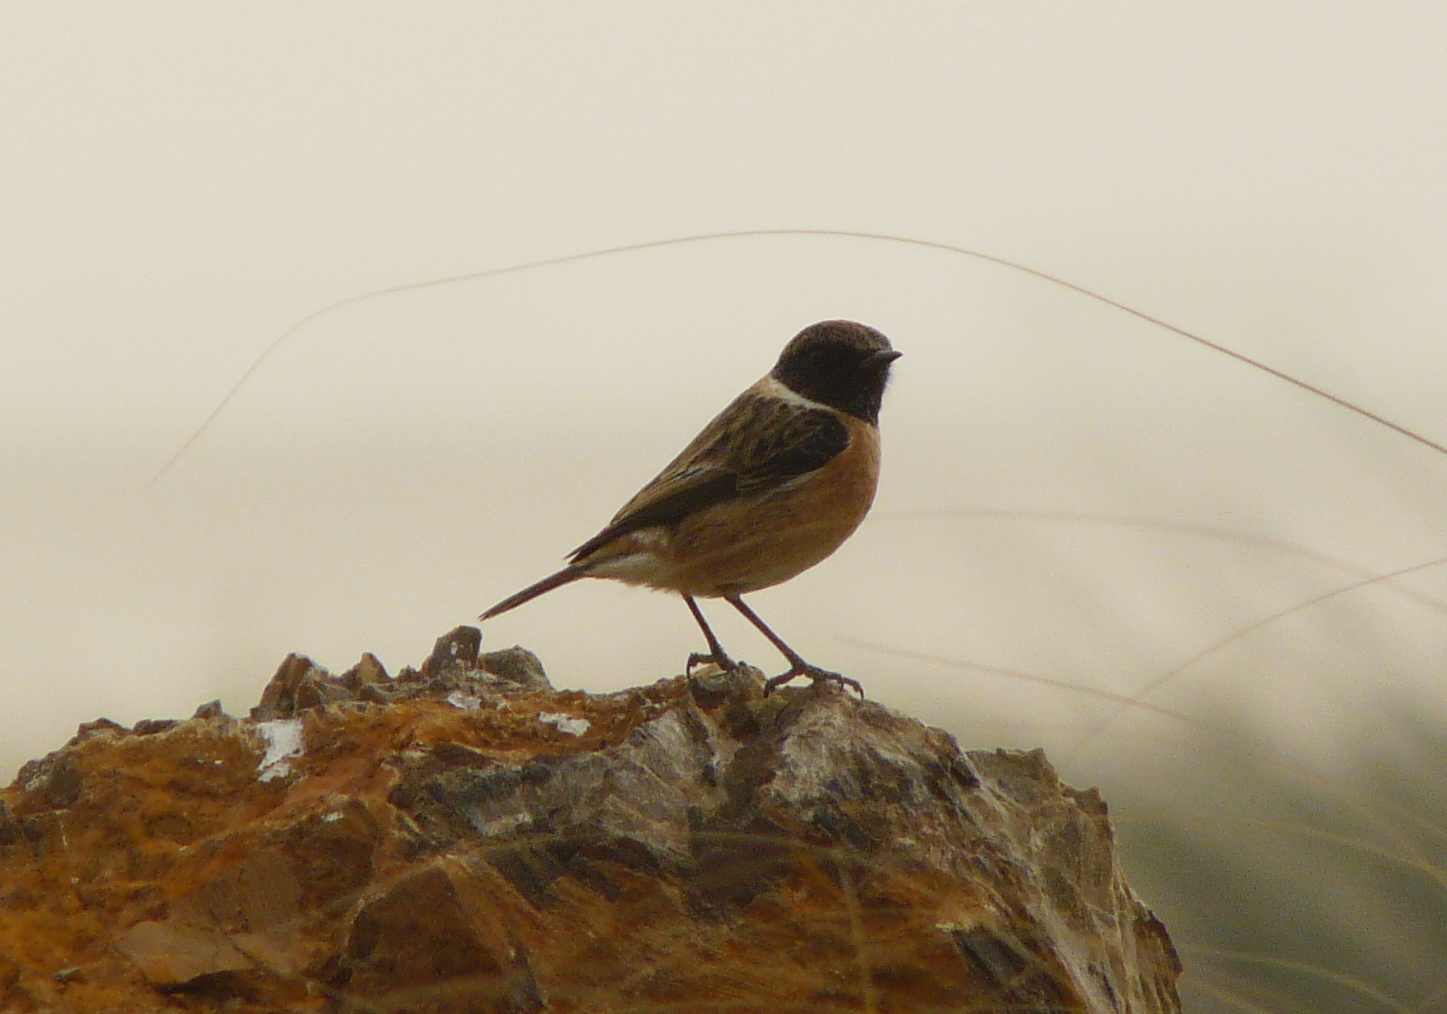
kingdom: Animalia
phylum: Chordata
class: Aves
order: Passeriformes
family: Muscicapidae
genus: Saxicola
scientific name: Saxicola rubicola
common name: European stonechat
